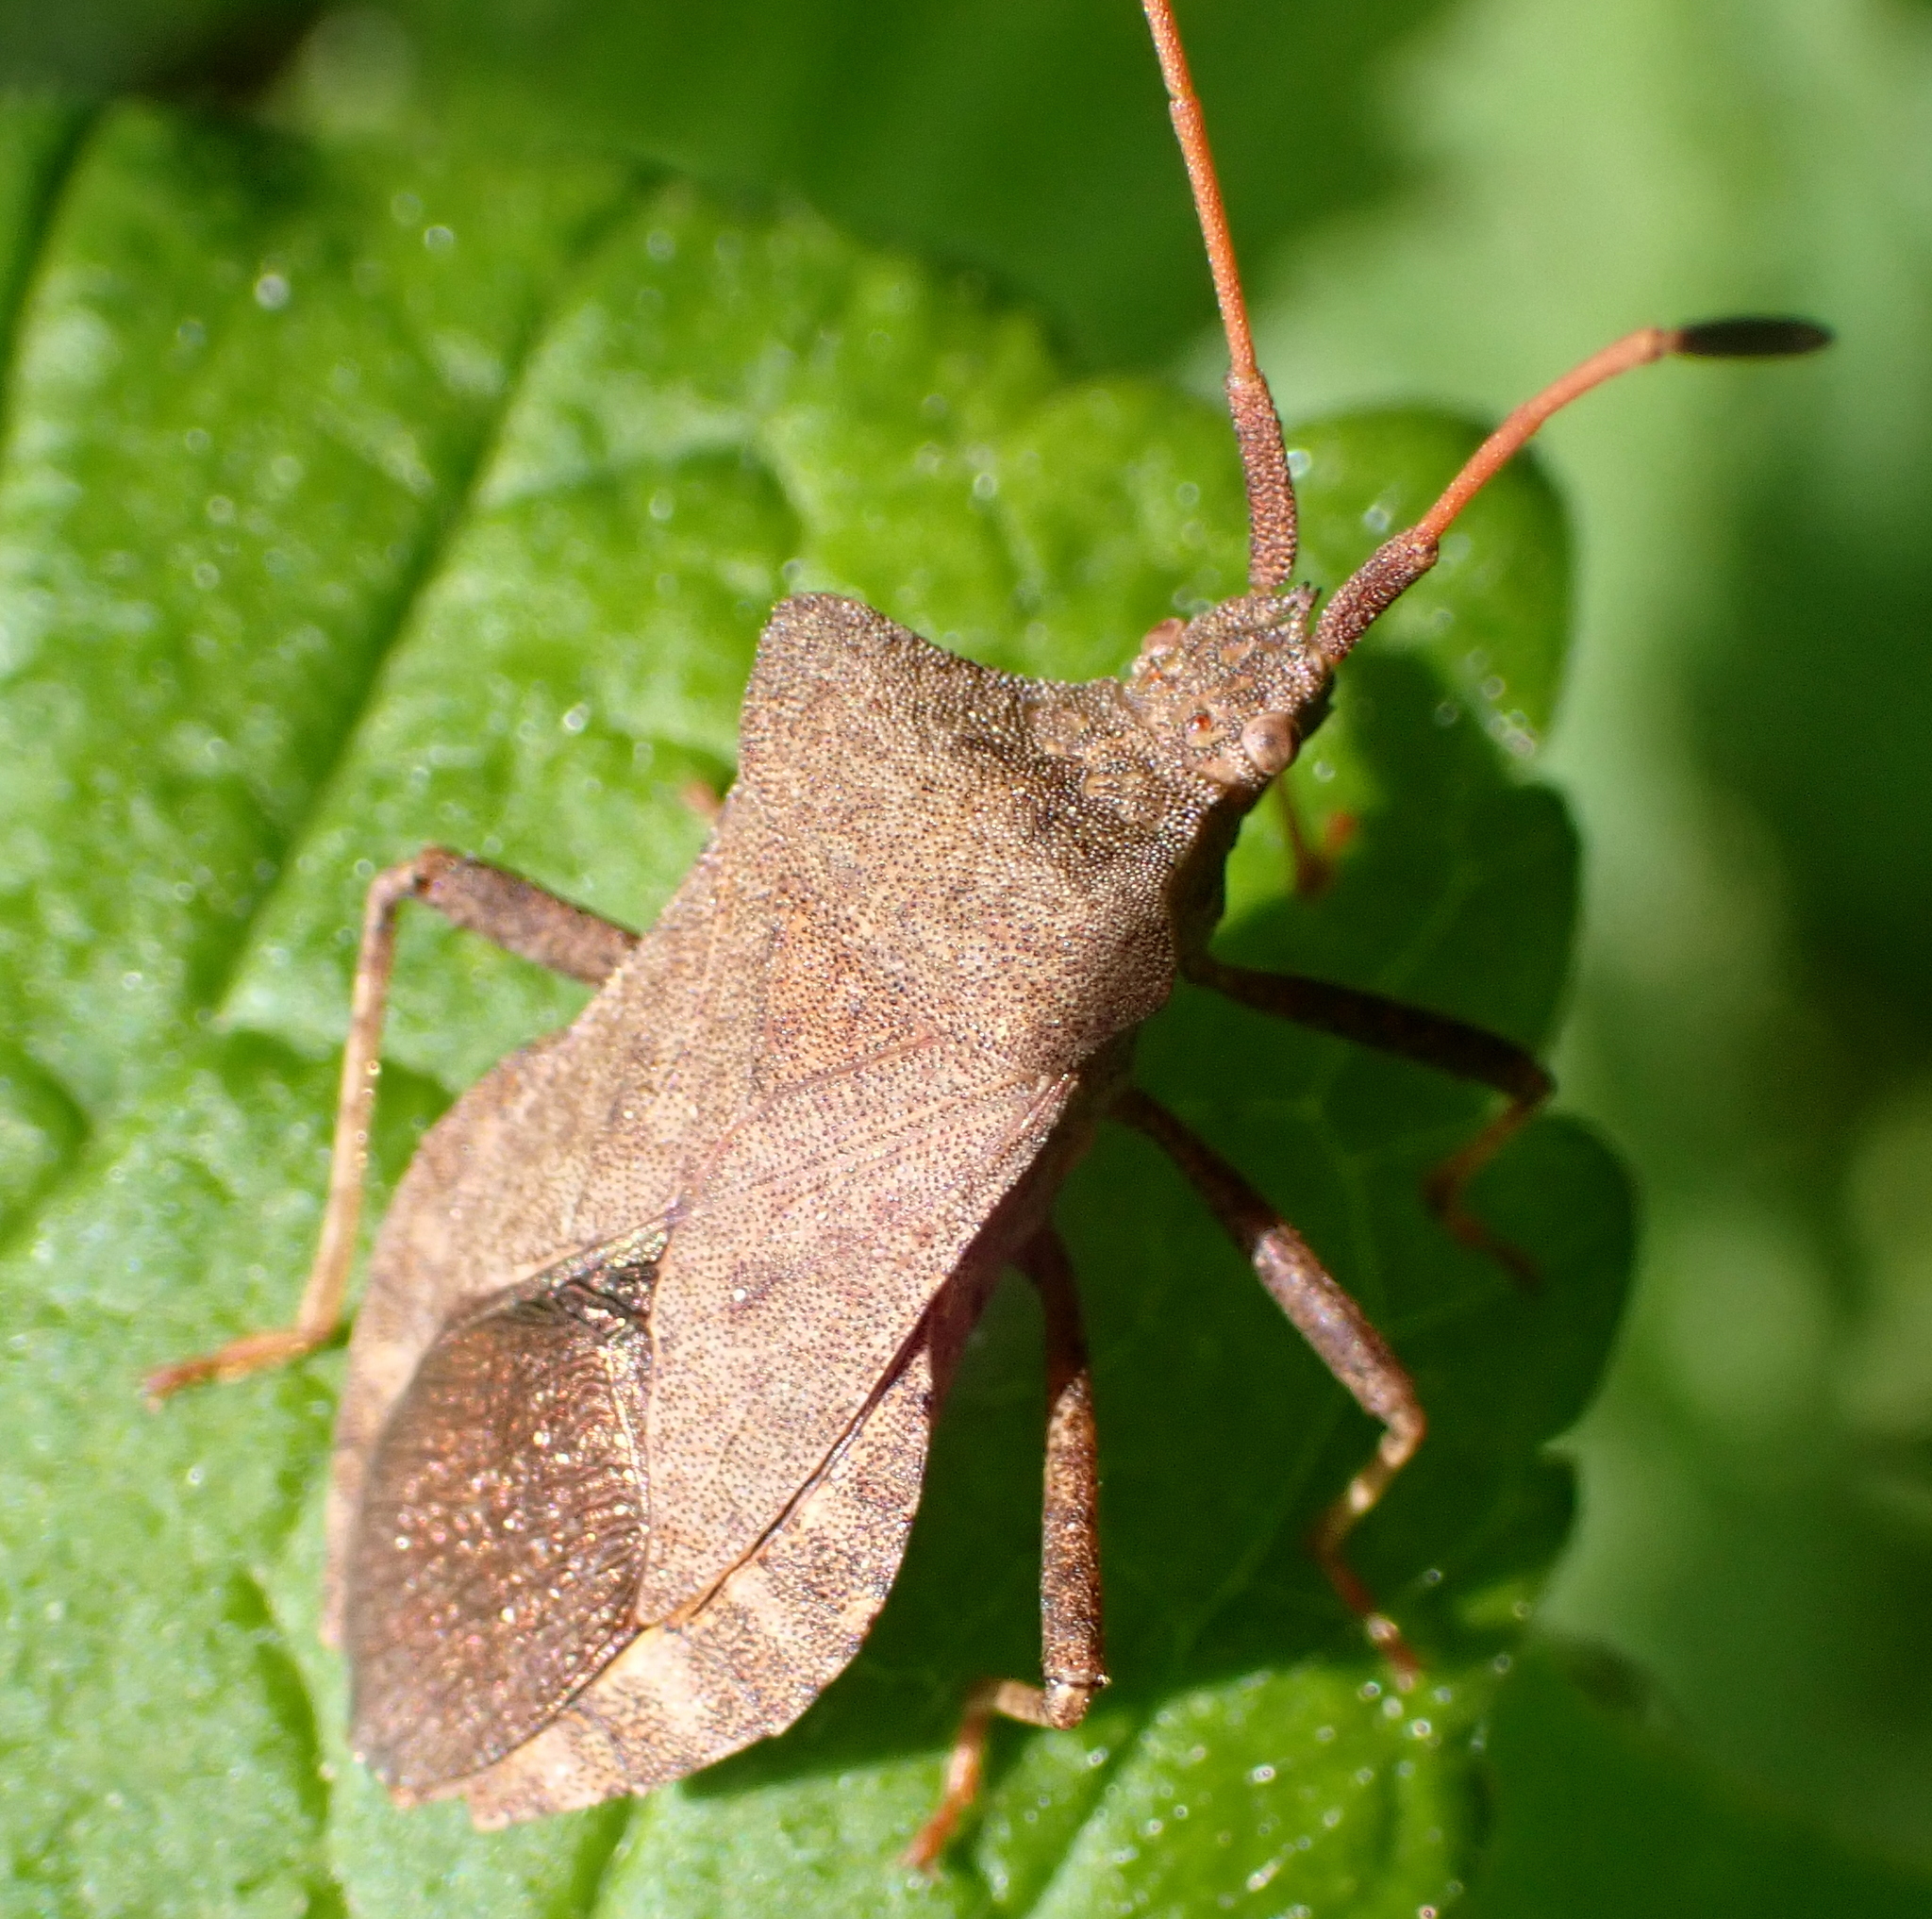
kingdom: Animalia
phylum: Arthropoda
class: Insecta
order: Hemiptera
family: Coreidae
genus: Coreus
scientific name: Coreus marginatus
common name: Dock bug
